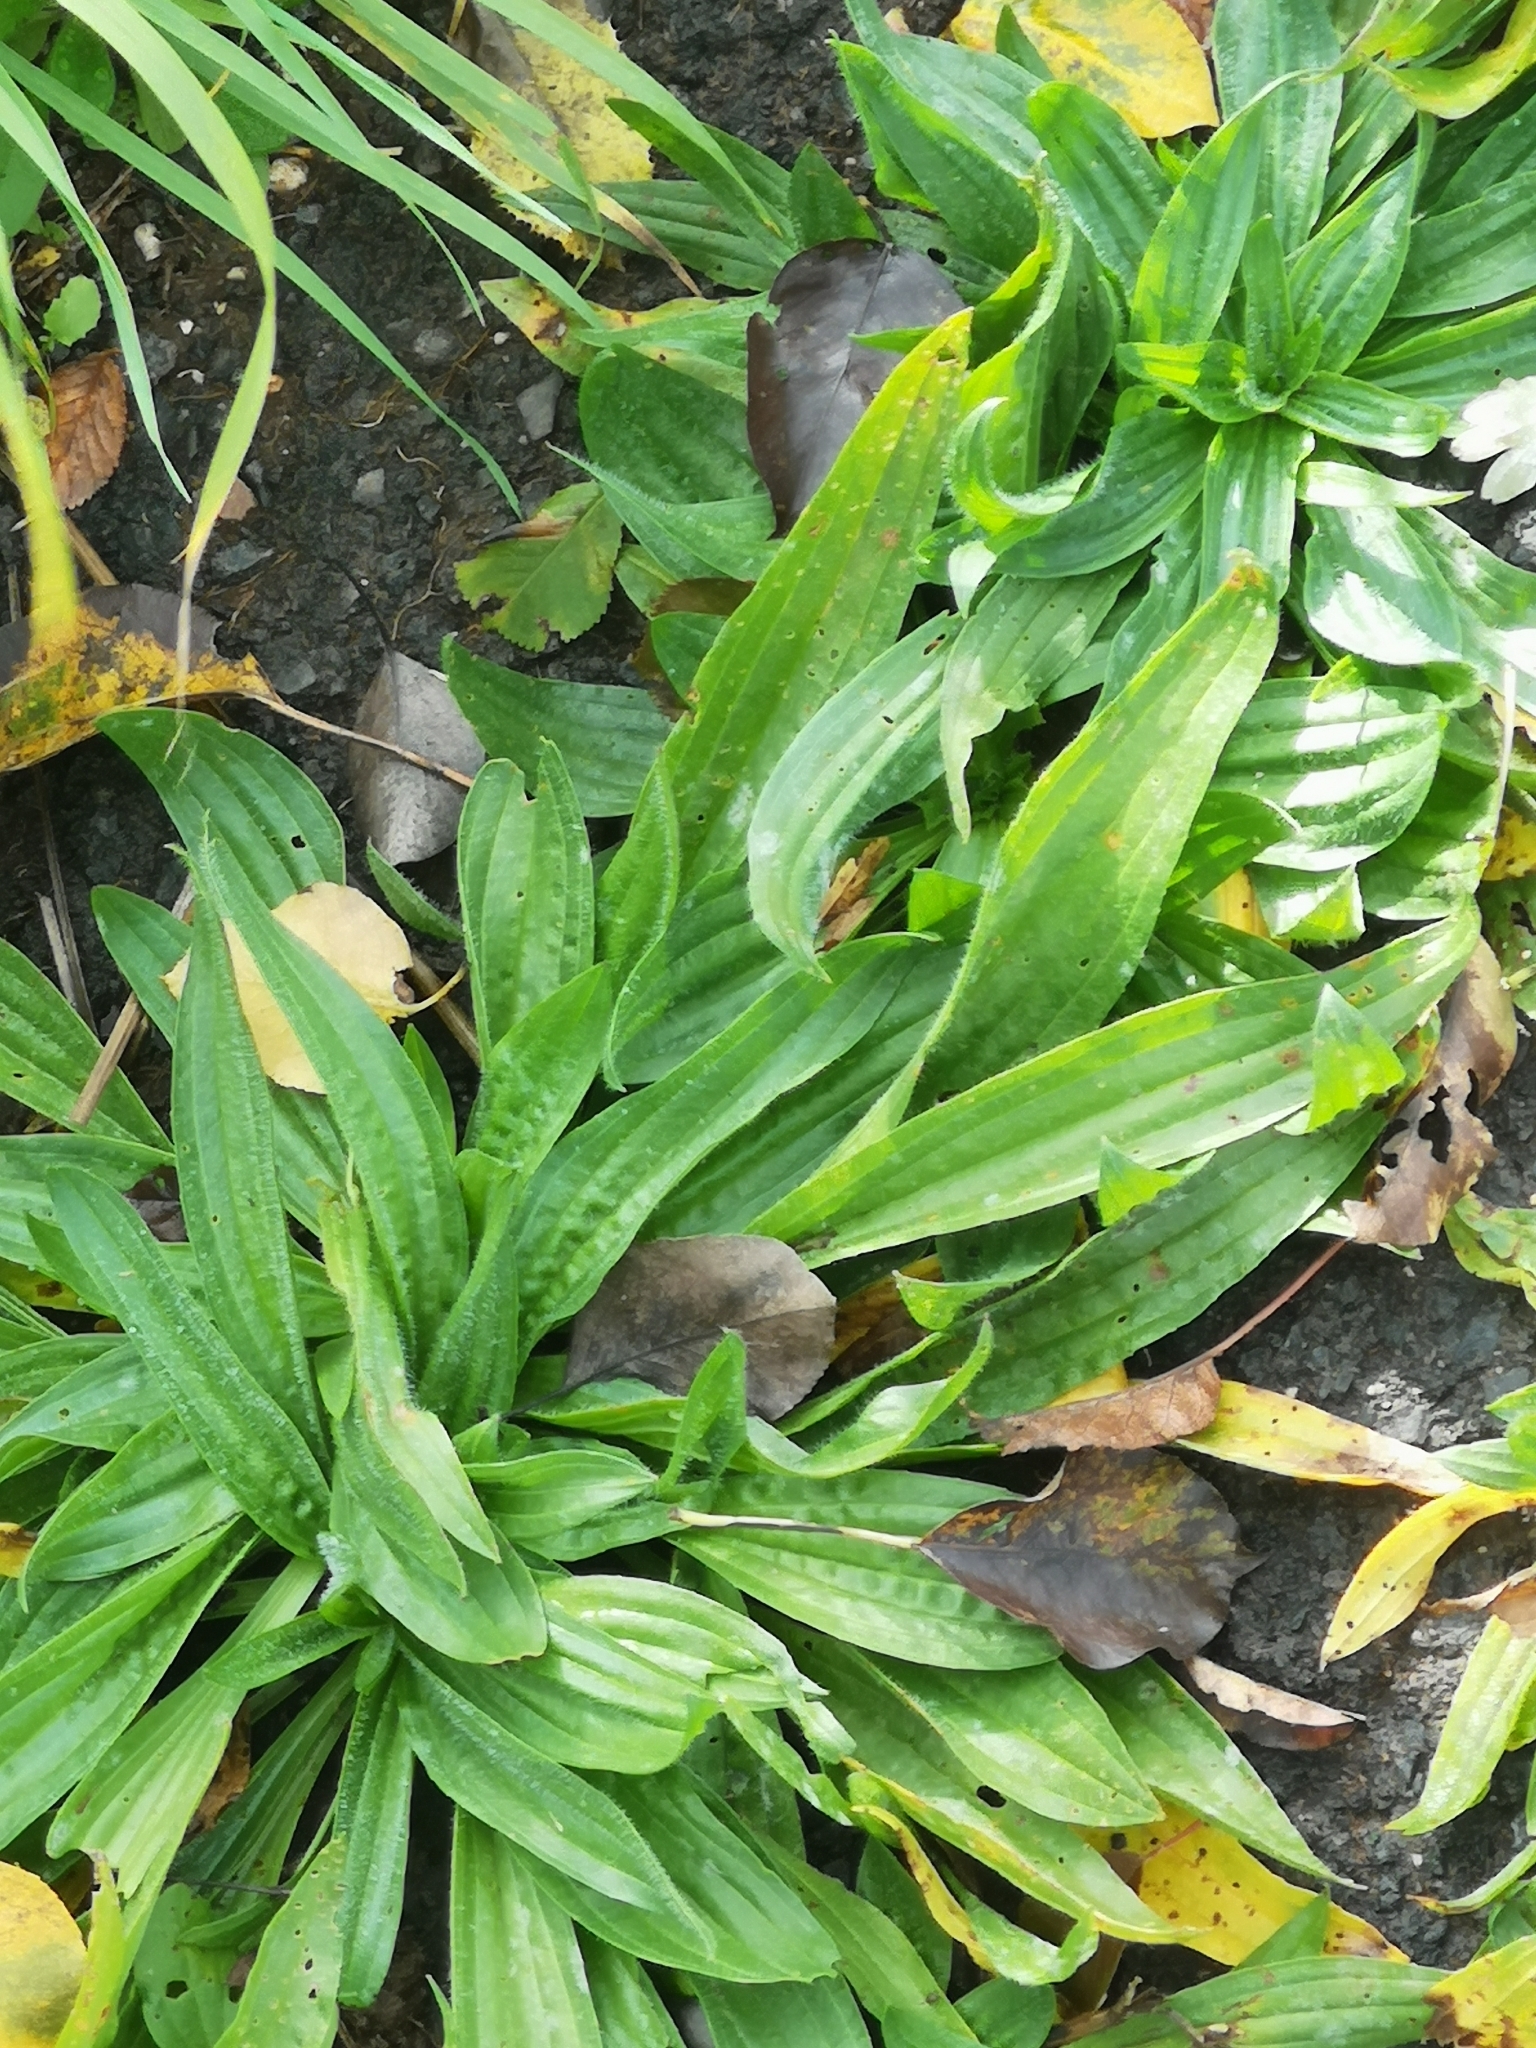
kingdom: Plantae
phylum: Tracheophyta
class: Magnoliopsida
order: Lamiales
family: Plantaginaceae
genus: Plantago
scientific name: Plantago lanceolata
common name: Ribwort plantain
